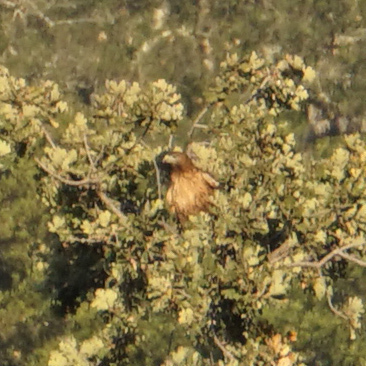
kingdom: Animalia
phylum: Chordata
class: Aves
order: Accipitriformes
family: Accipitridae
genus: Buteo
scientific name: Buteo jamaicensis
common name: Red-tailed hawk
